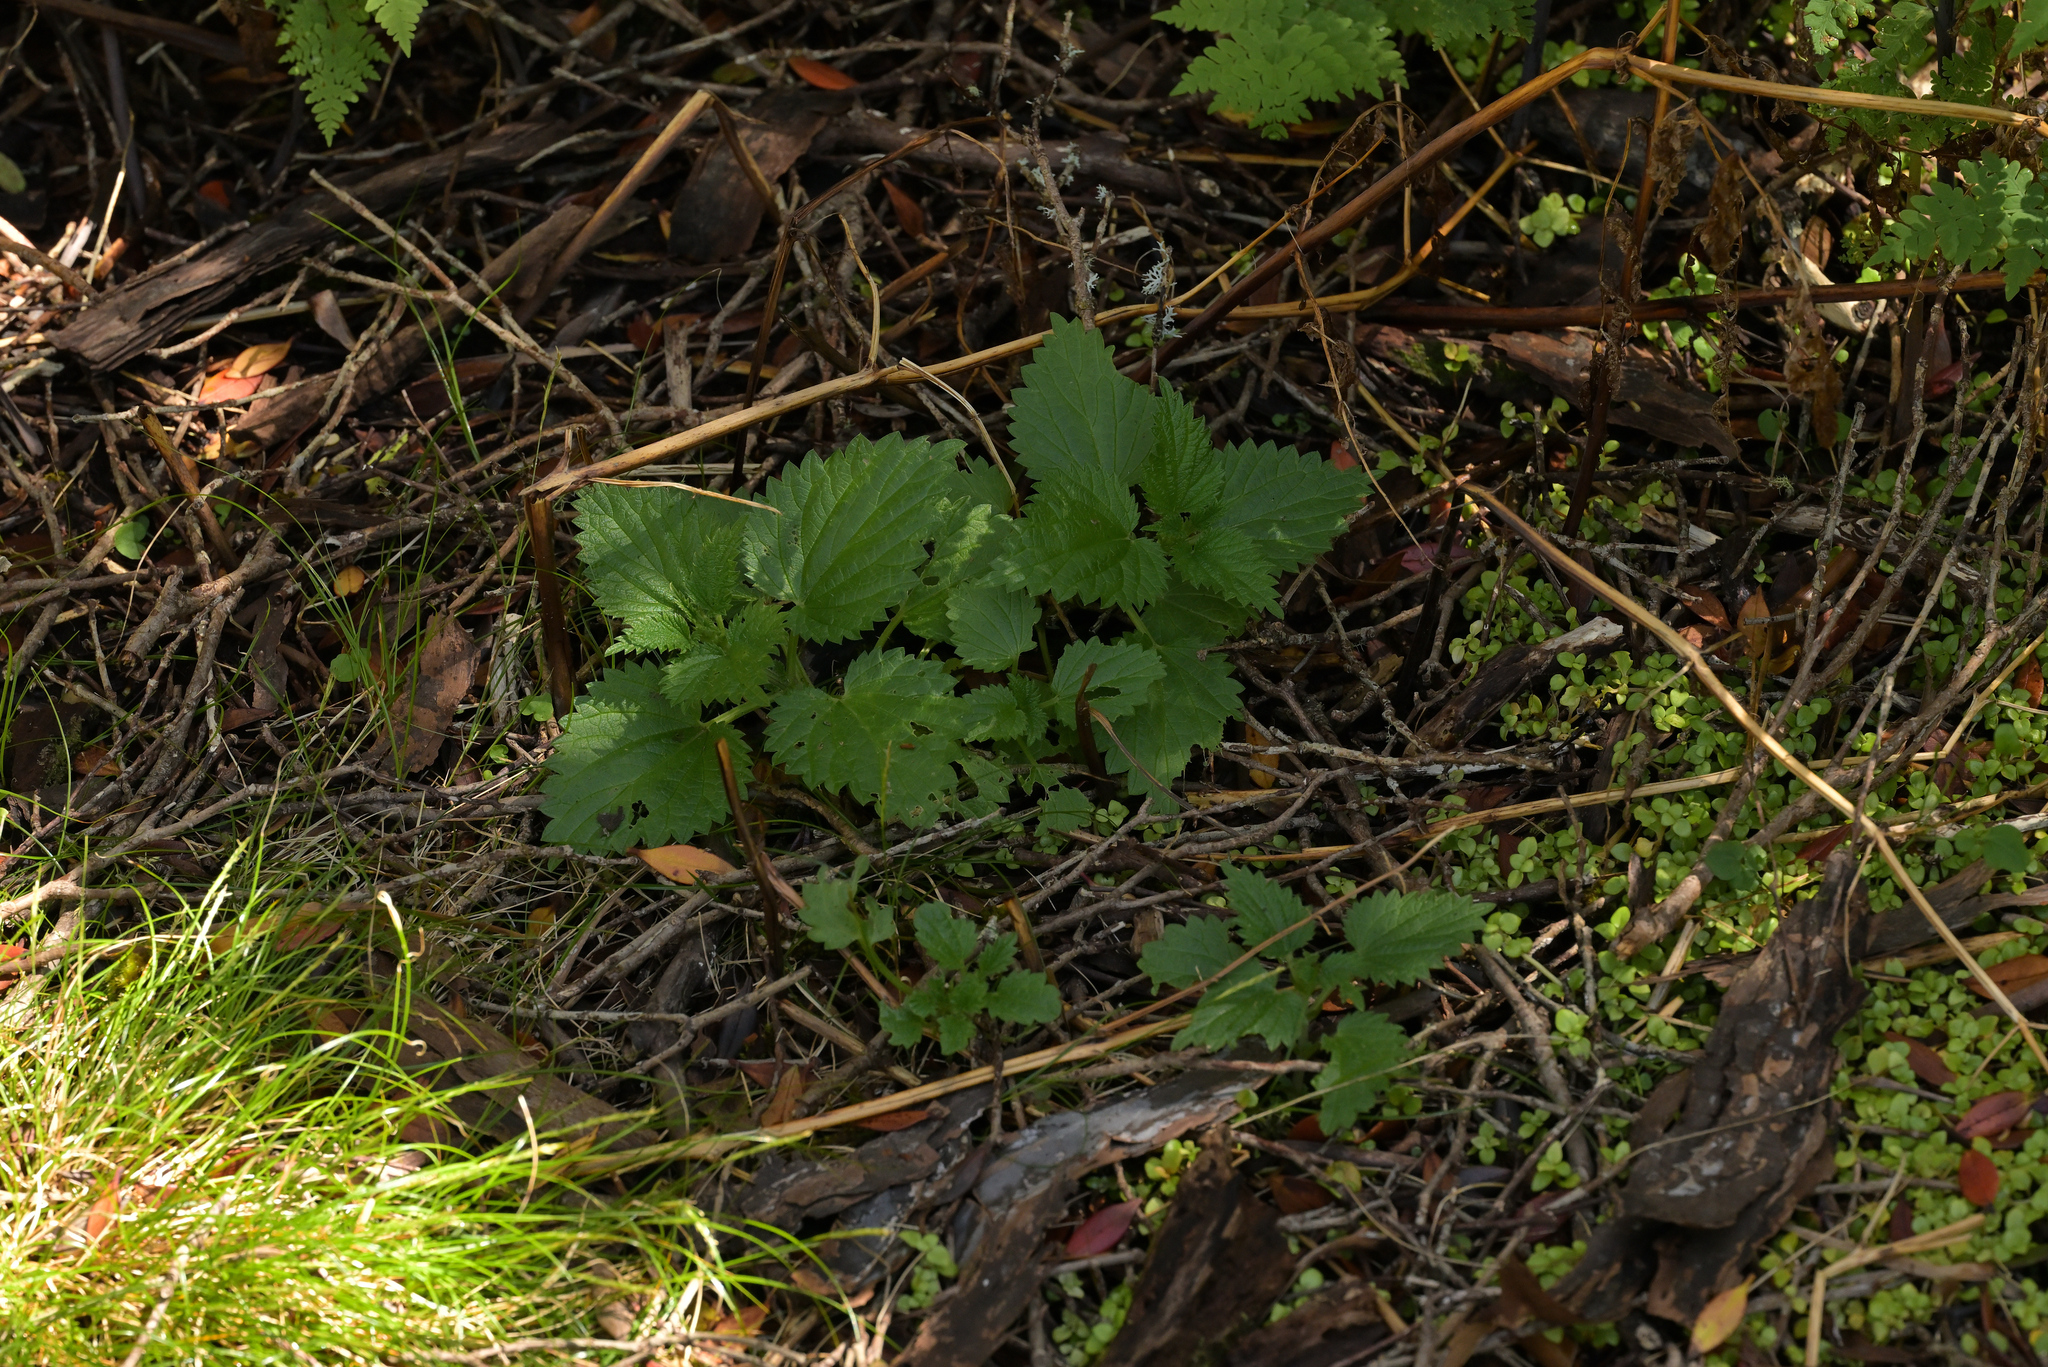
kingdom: Plantae
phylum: Tracheophyta
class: Magnoliopsida
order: Rosales
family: Urticaceae
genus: Urtica
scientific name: Urtica australis
